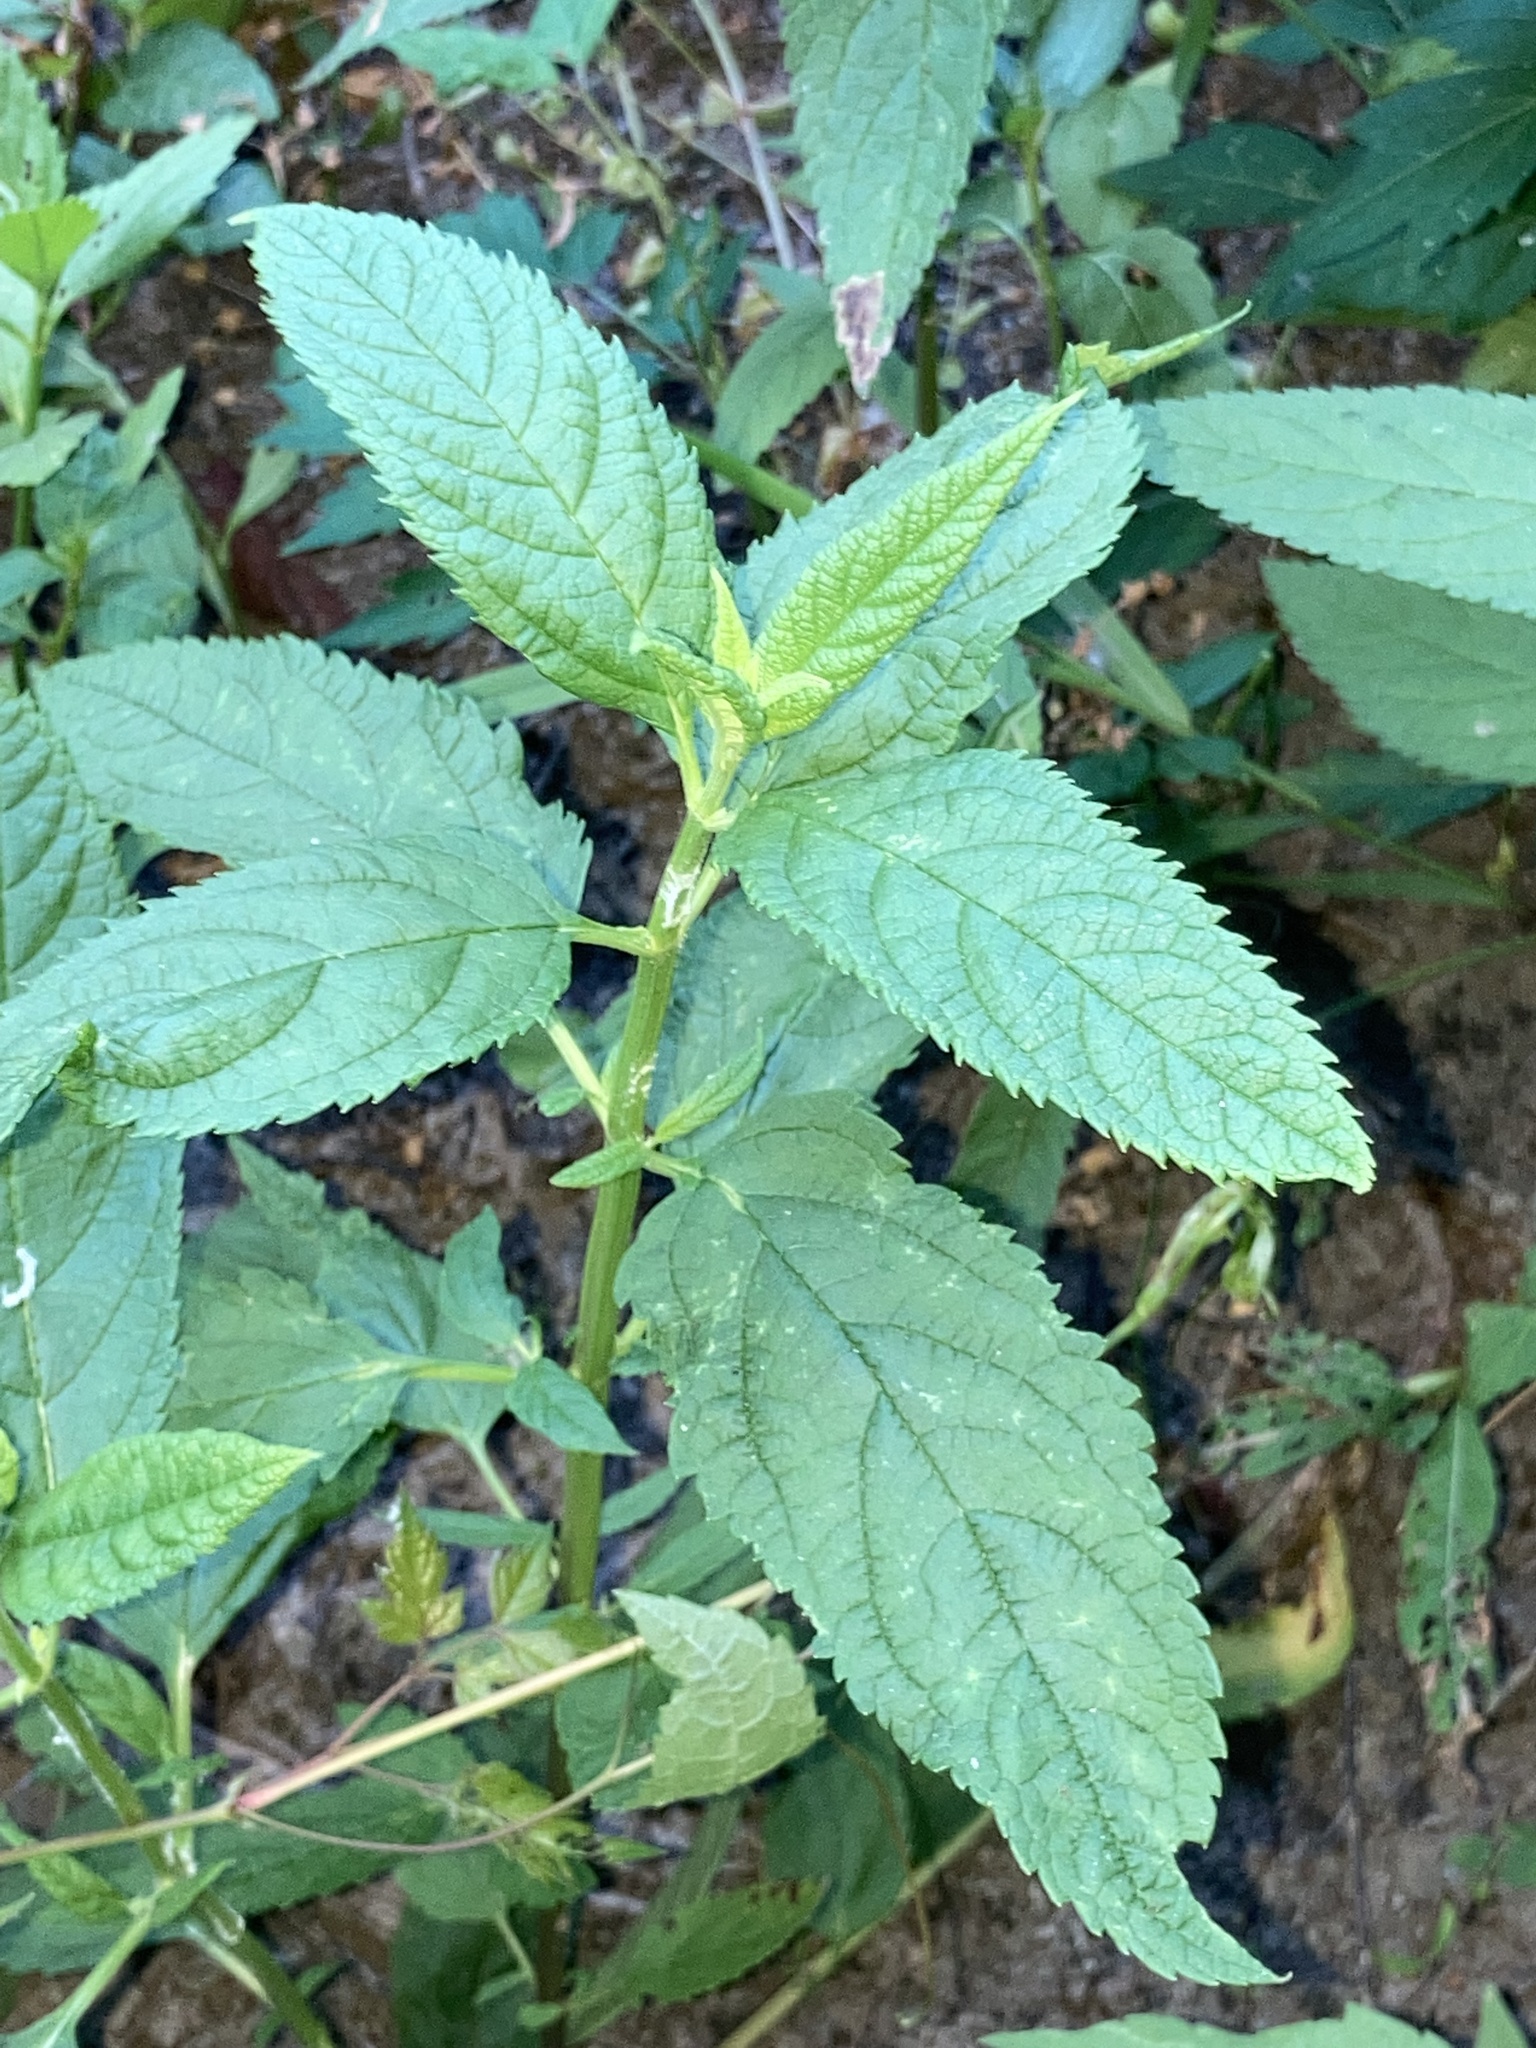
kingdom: Plantae
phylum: Tracheophyta
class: Magnoliopsida
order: Lamiales
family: Lamiaceae
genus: Teucrium
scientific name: Teucrium canadense
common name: American germander
